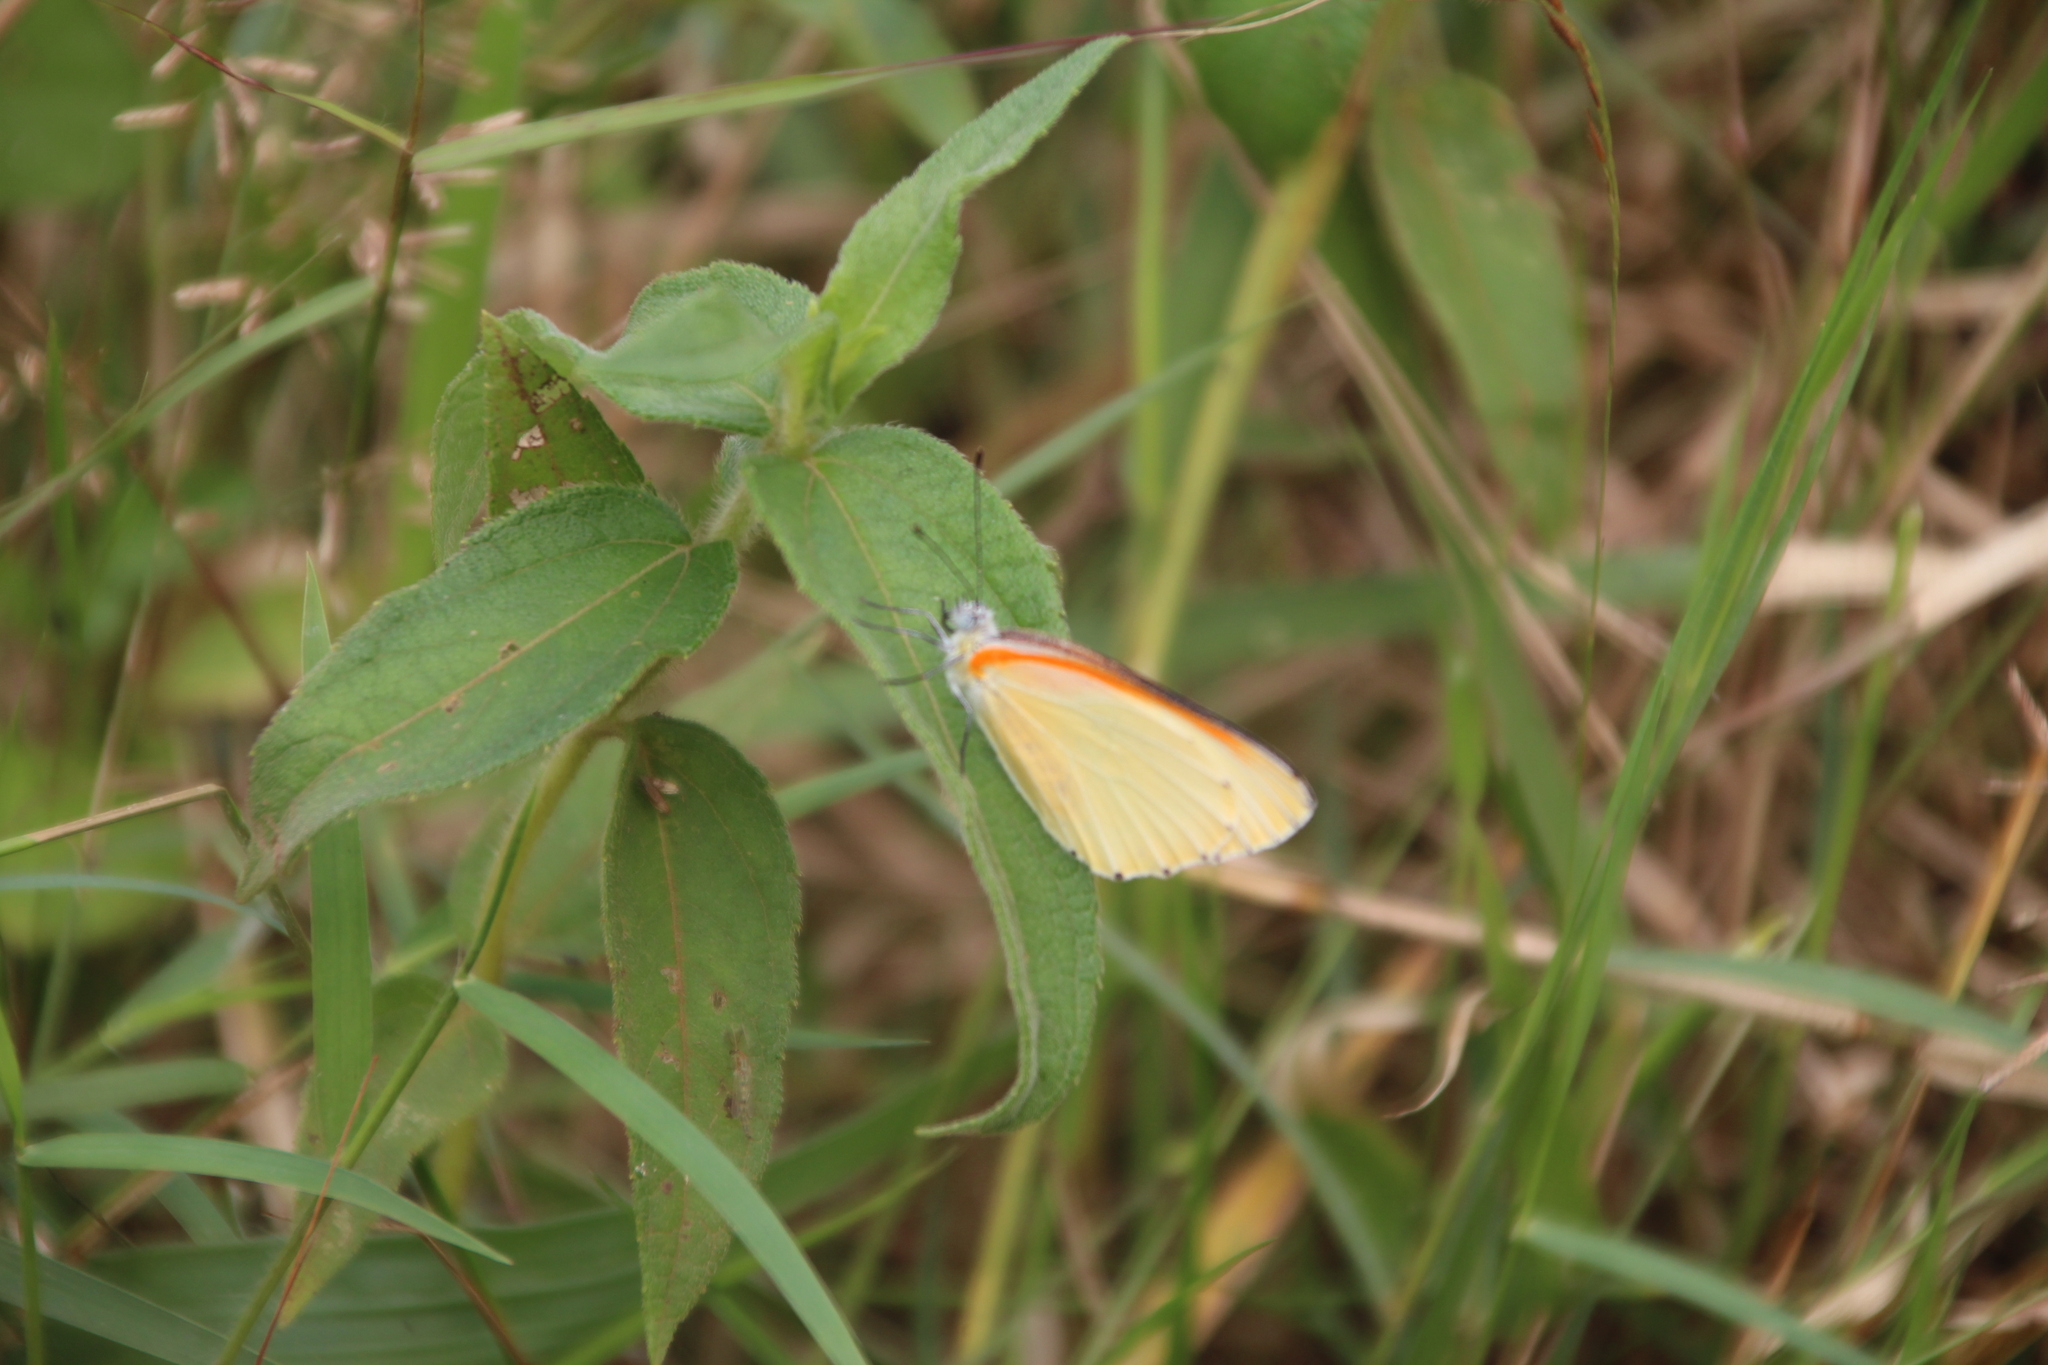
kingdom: Animalia
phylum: Arthropoda
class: Insecta
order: Lepidoptera
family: Pieridae
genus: Mylothris
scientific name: Mylothris bernice
